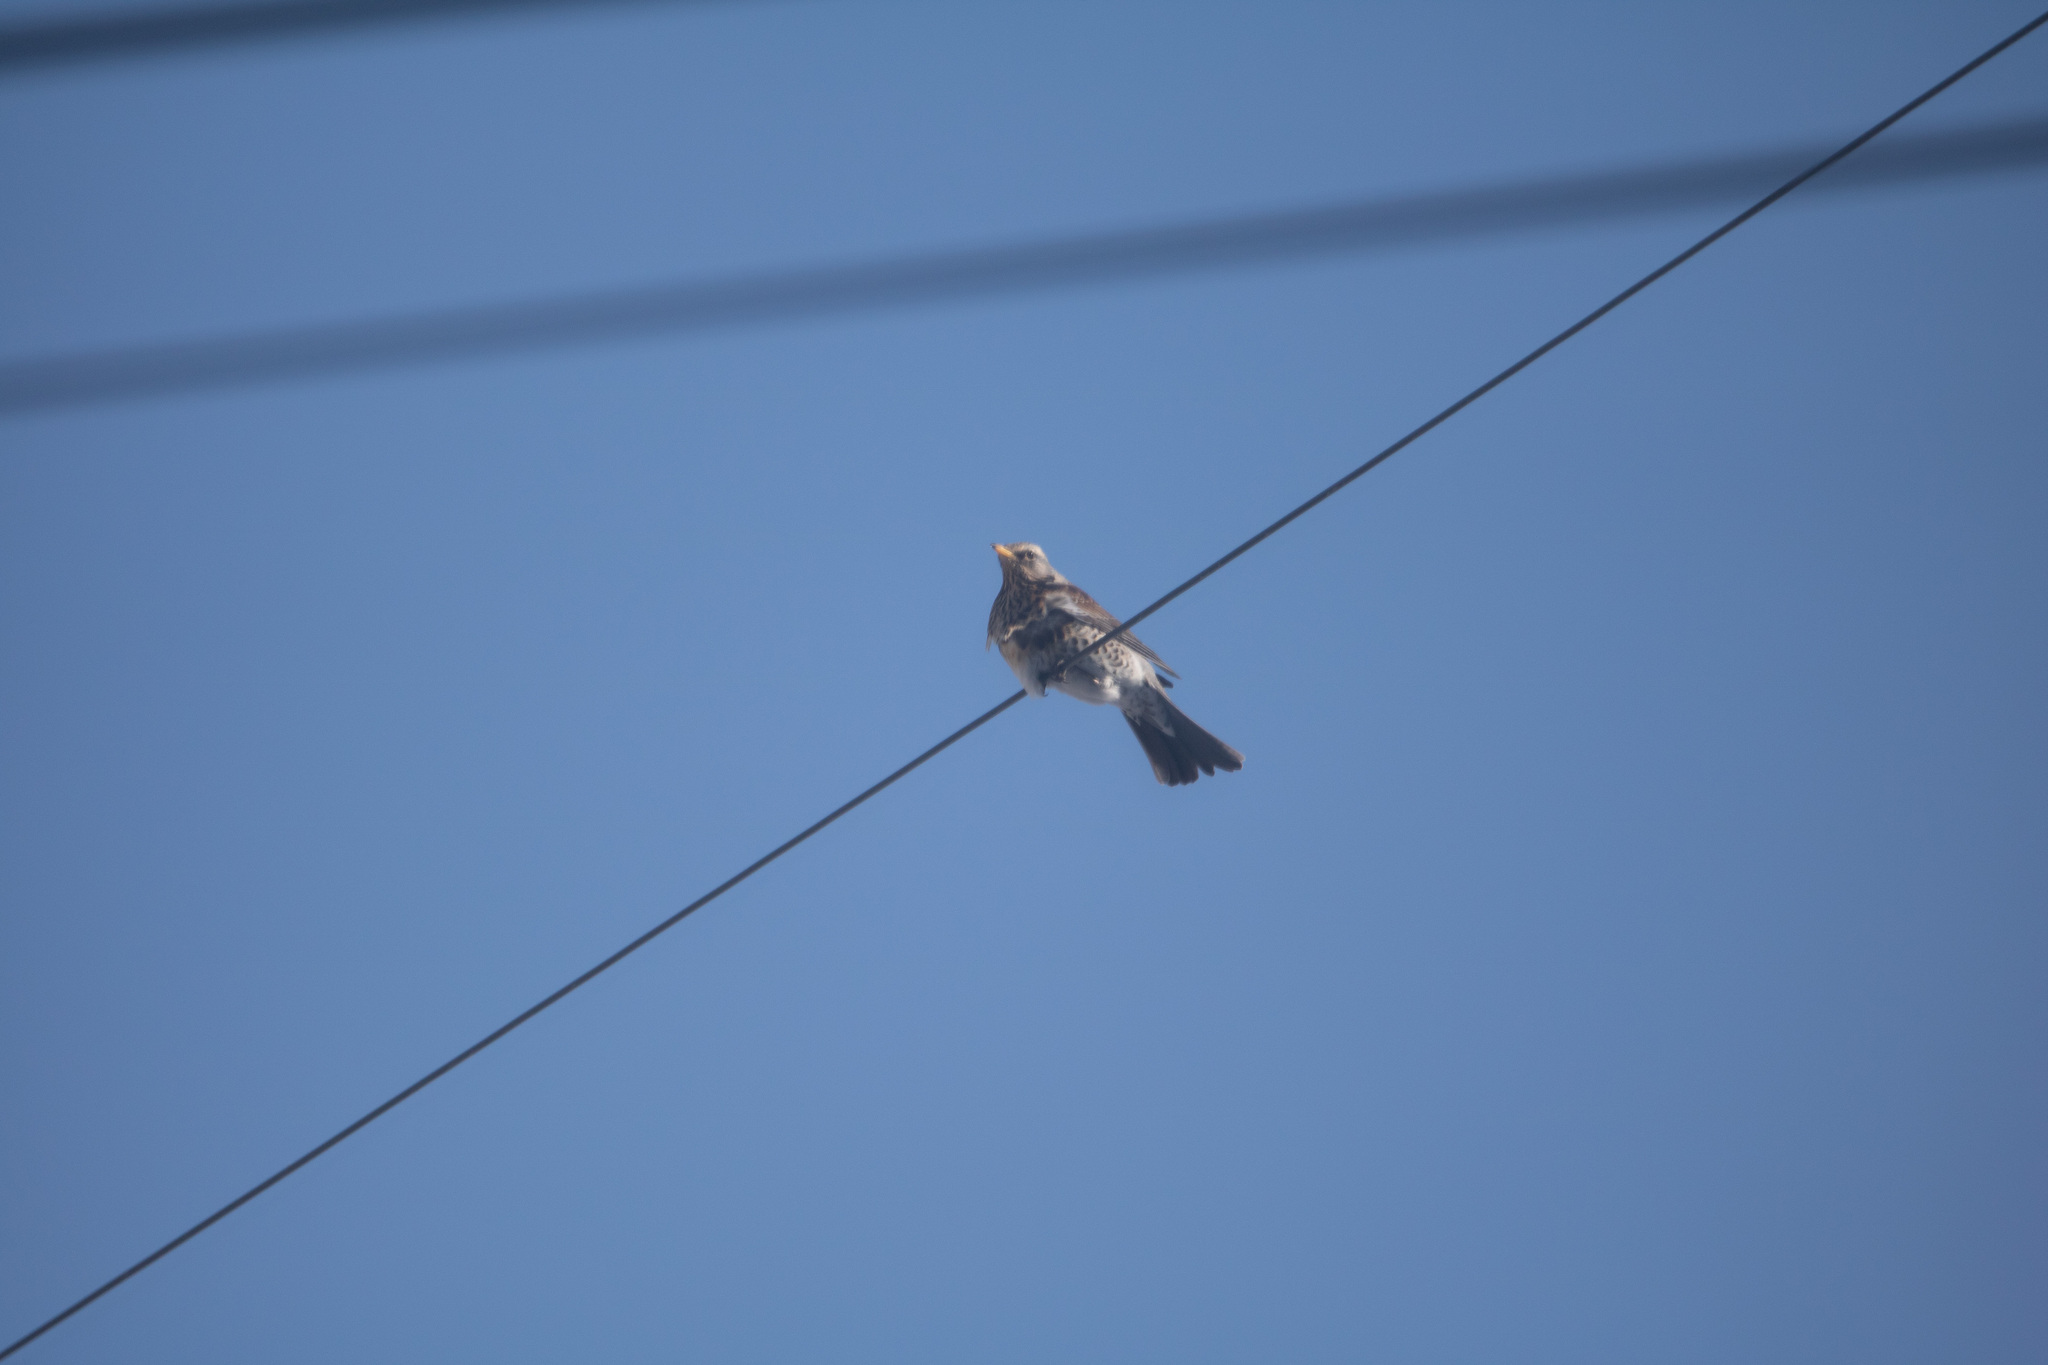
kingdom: Animalia
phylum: Chordata
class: Aves
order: Passeriformes
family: Turdidae
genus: Turdus
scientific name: Turdus pilaris
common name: Fieldfare
